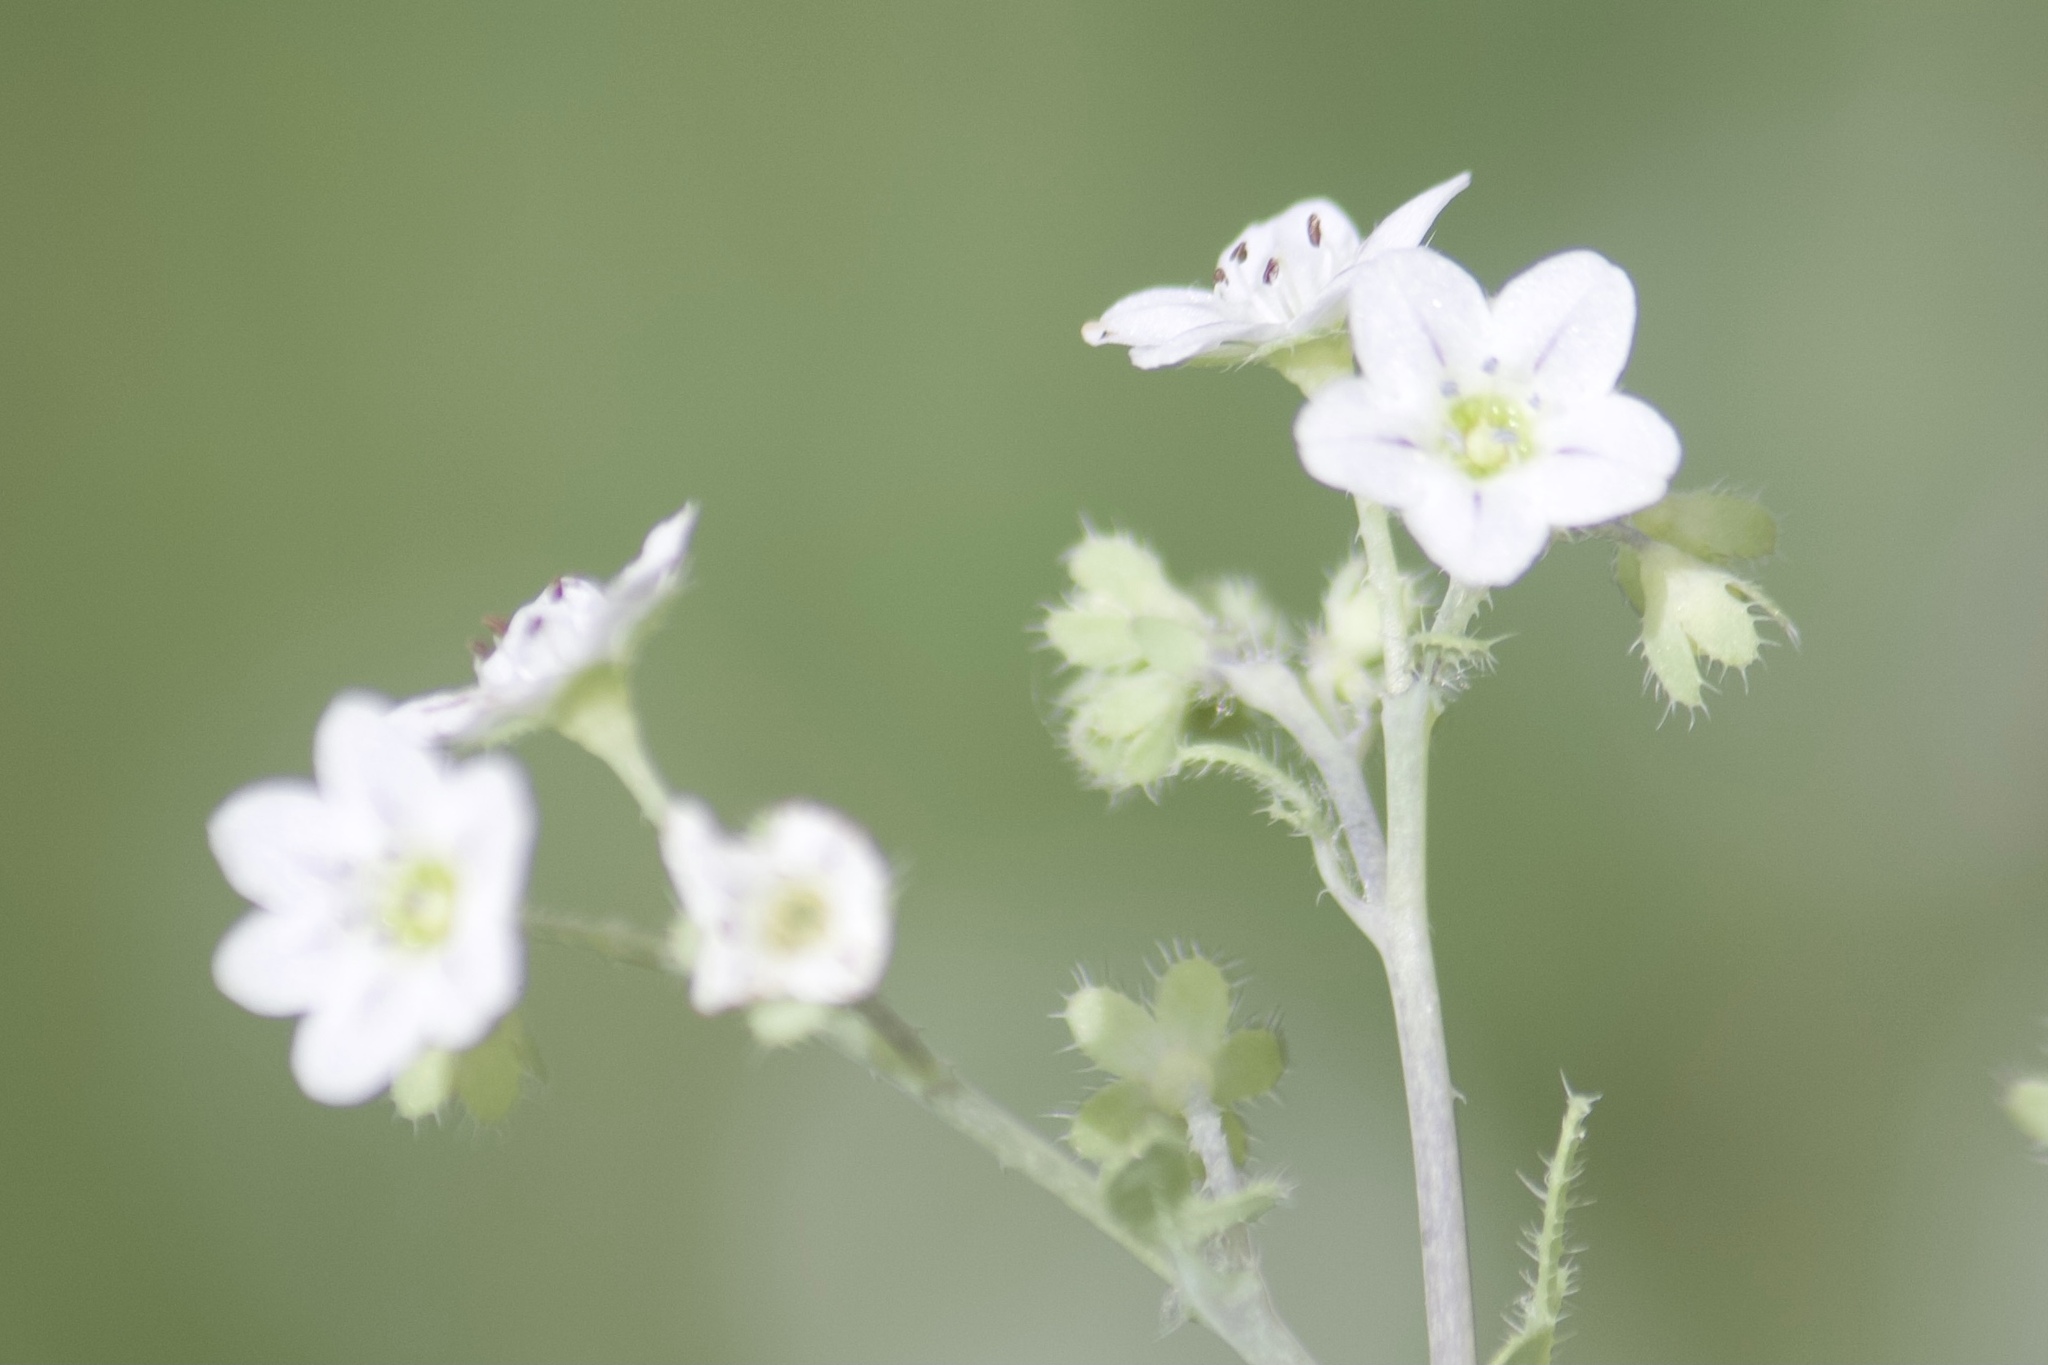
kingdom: Plantae
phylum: Tracheophyta
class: Magnoliopsida
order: Boraginales
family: Hydrophyllaceae
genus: Pholistoma
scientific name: Pholistoma membranaceum
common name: White fiesta-flower
